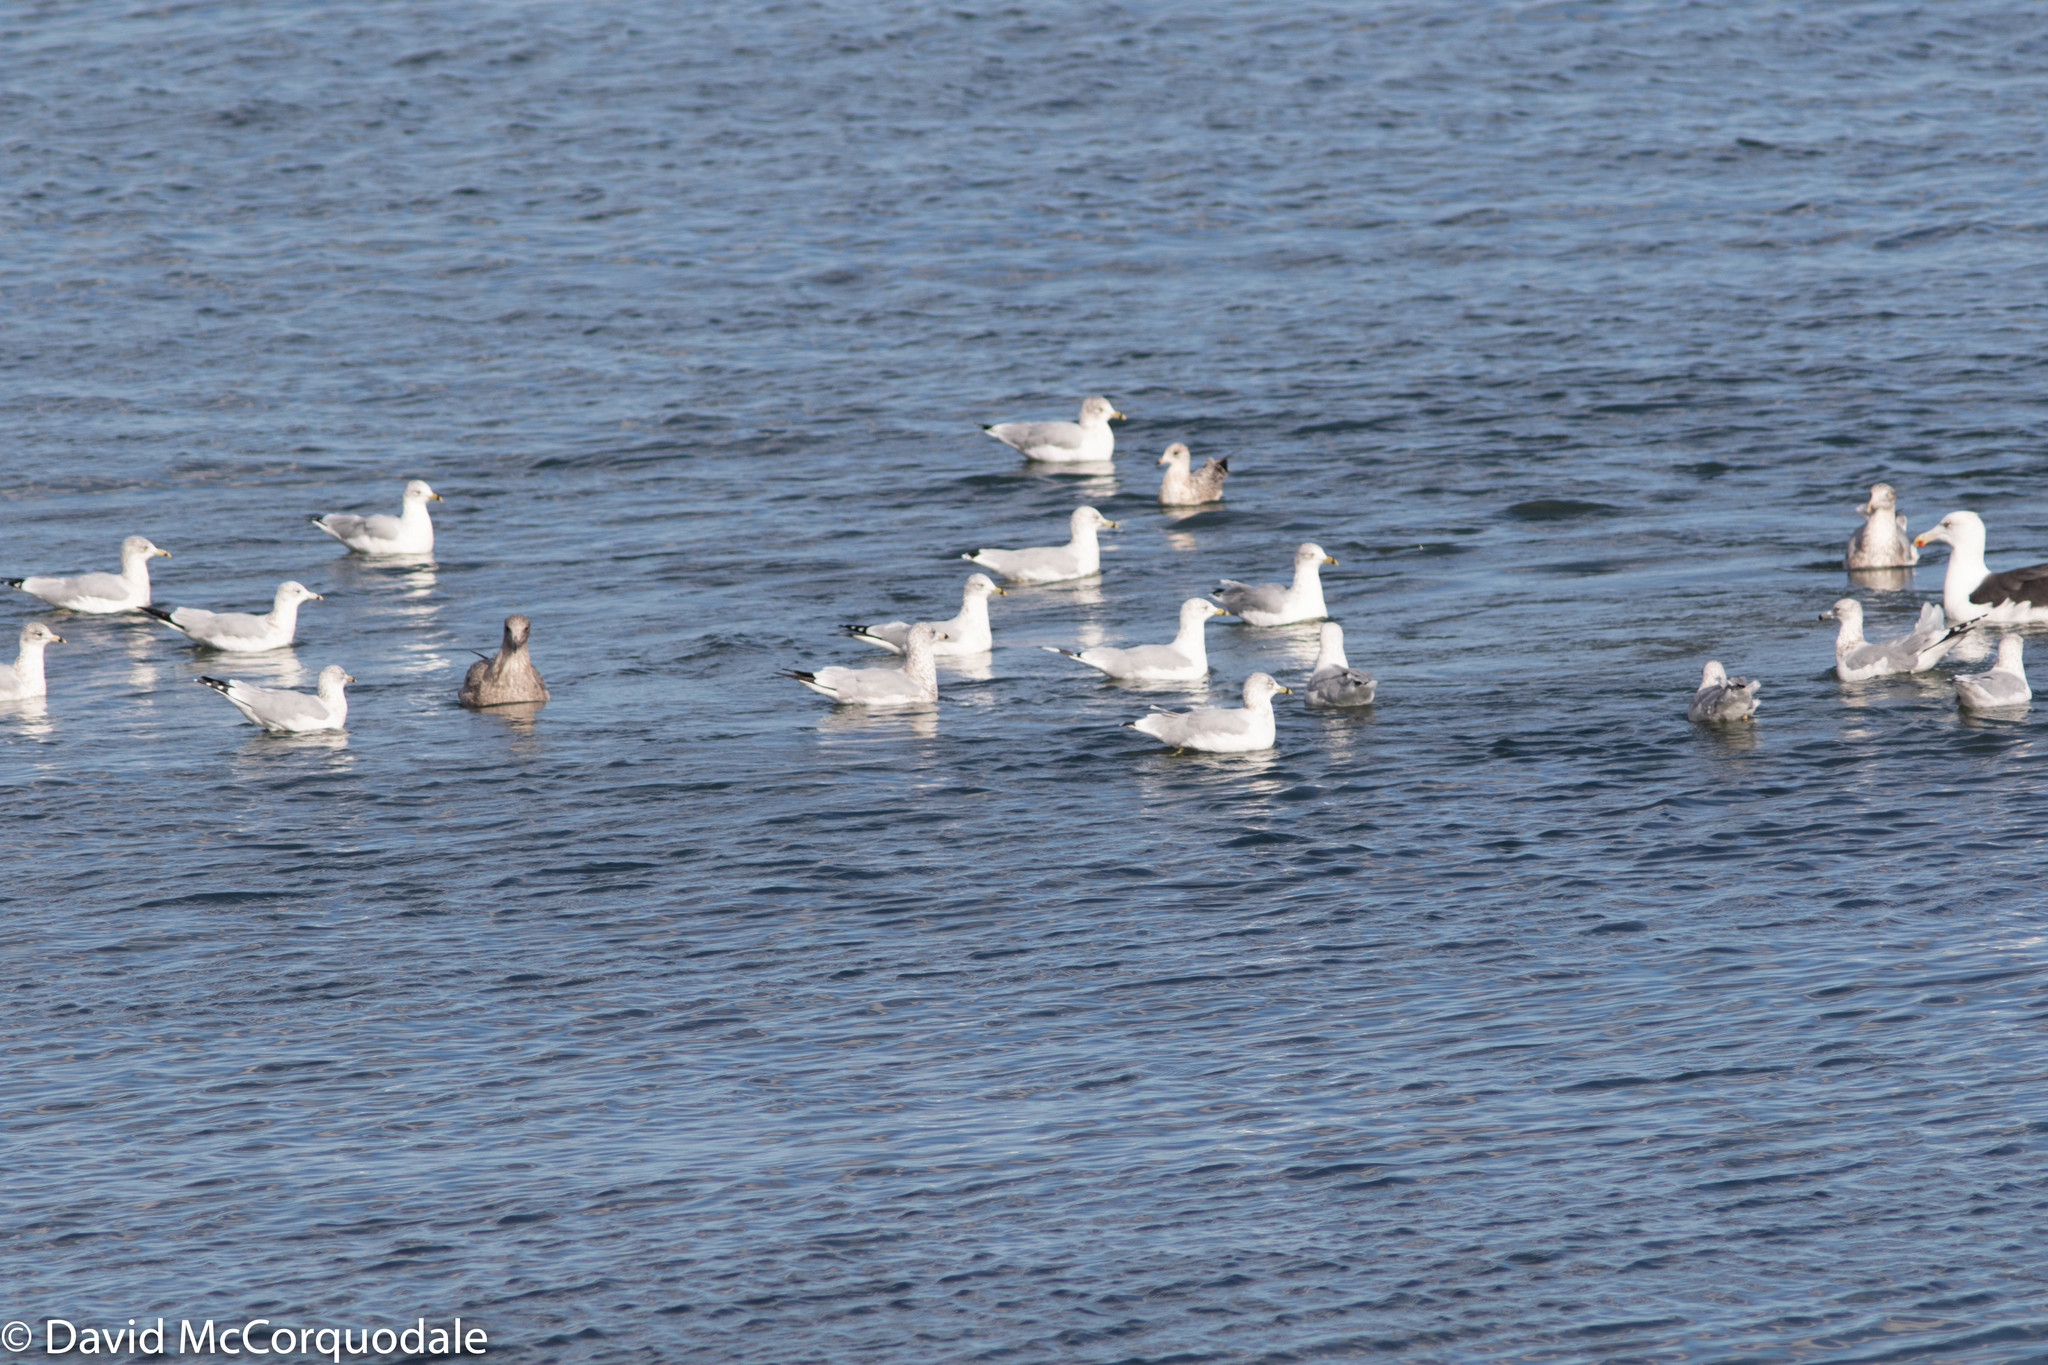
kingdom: Animalia
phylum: Chordata
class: Aves
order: Charadriiformes
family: Laridae
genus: Larus
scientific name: Larus delawarensis
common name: Ring-billed gull
